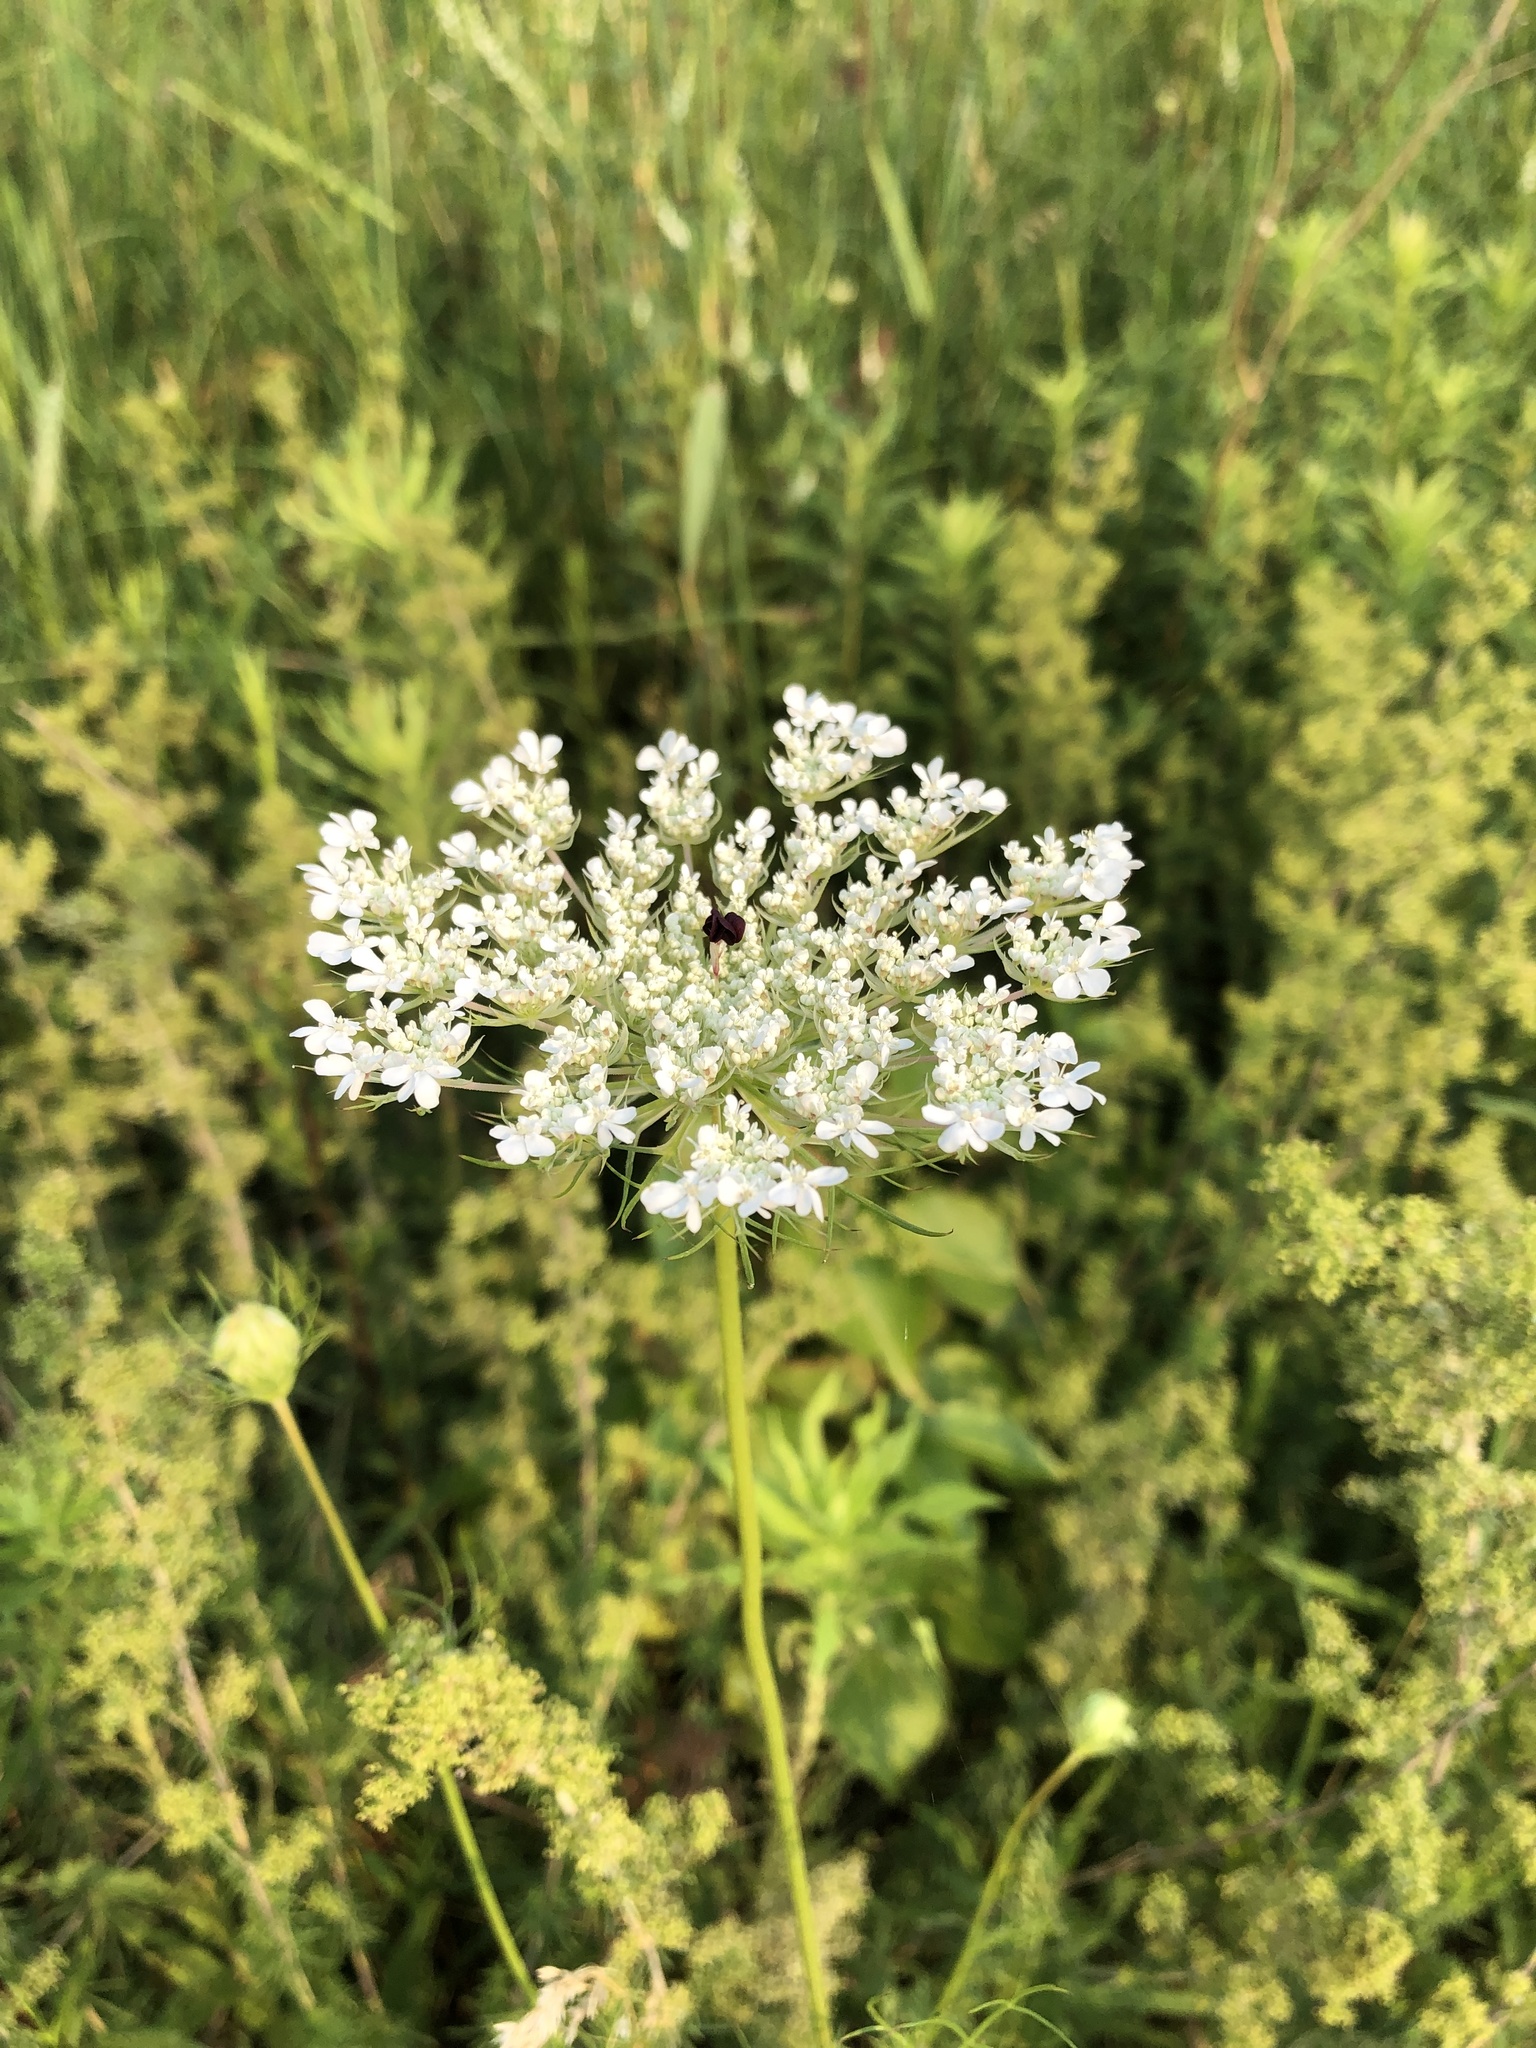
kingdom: Plantae
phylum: Tracheophyta
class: Magnoliopsida
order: Apiales
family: Apiaceae
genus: Daucus
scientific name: Daucus carota
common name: Wild carrot
